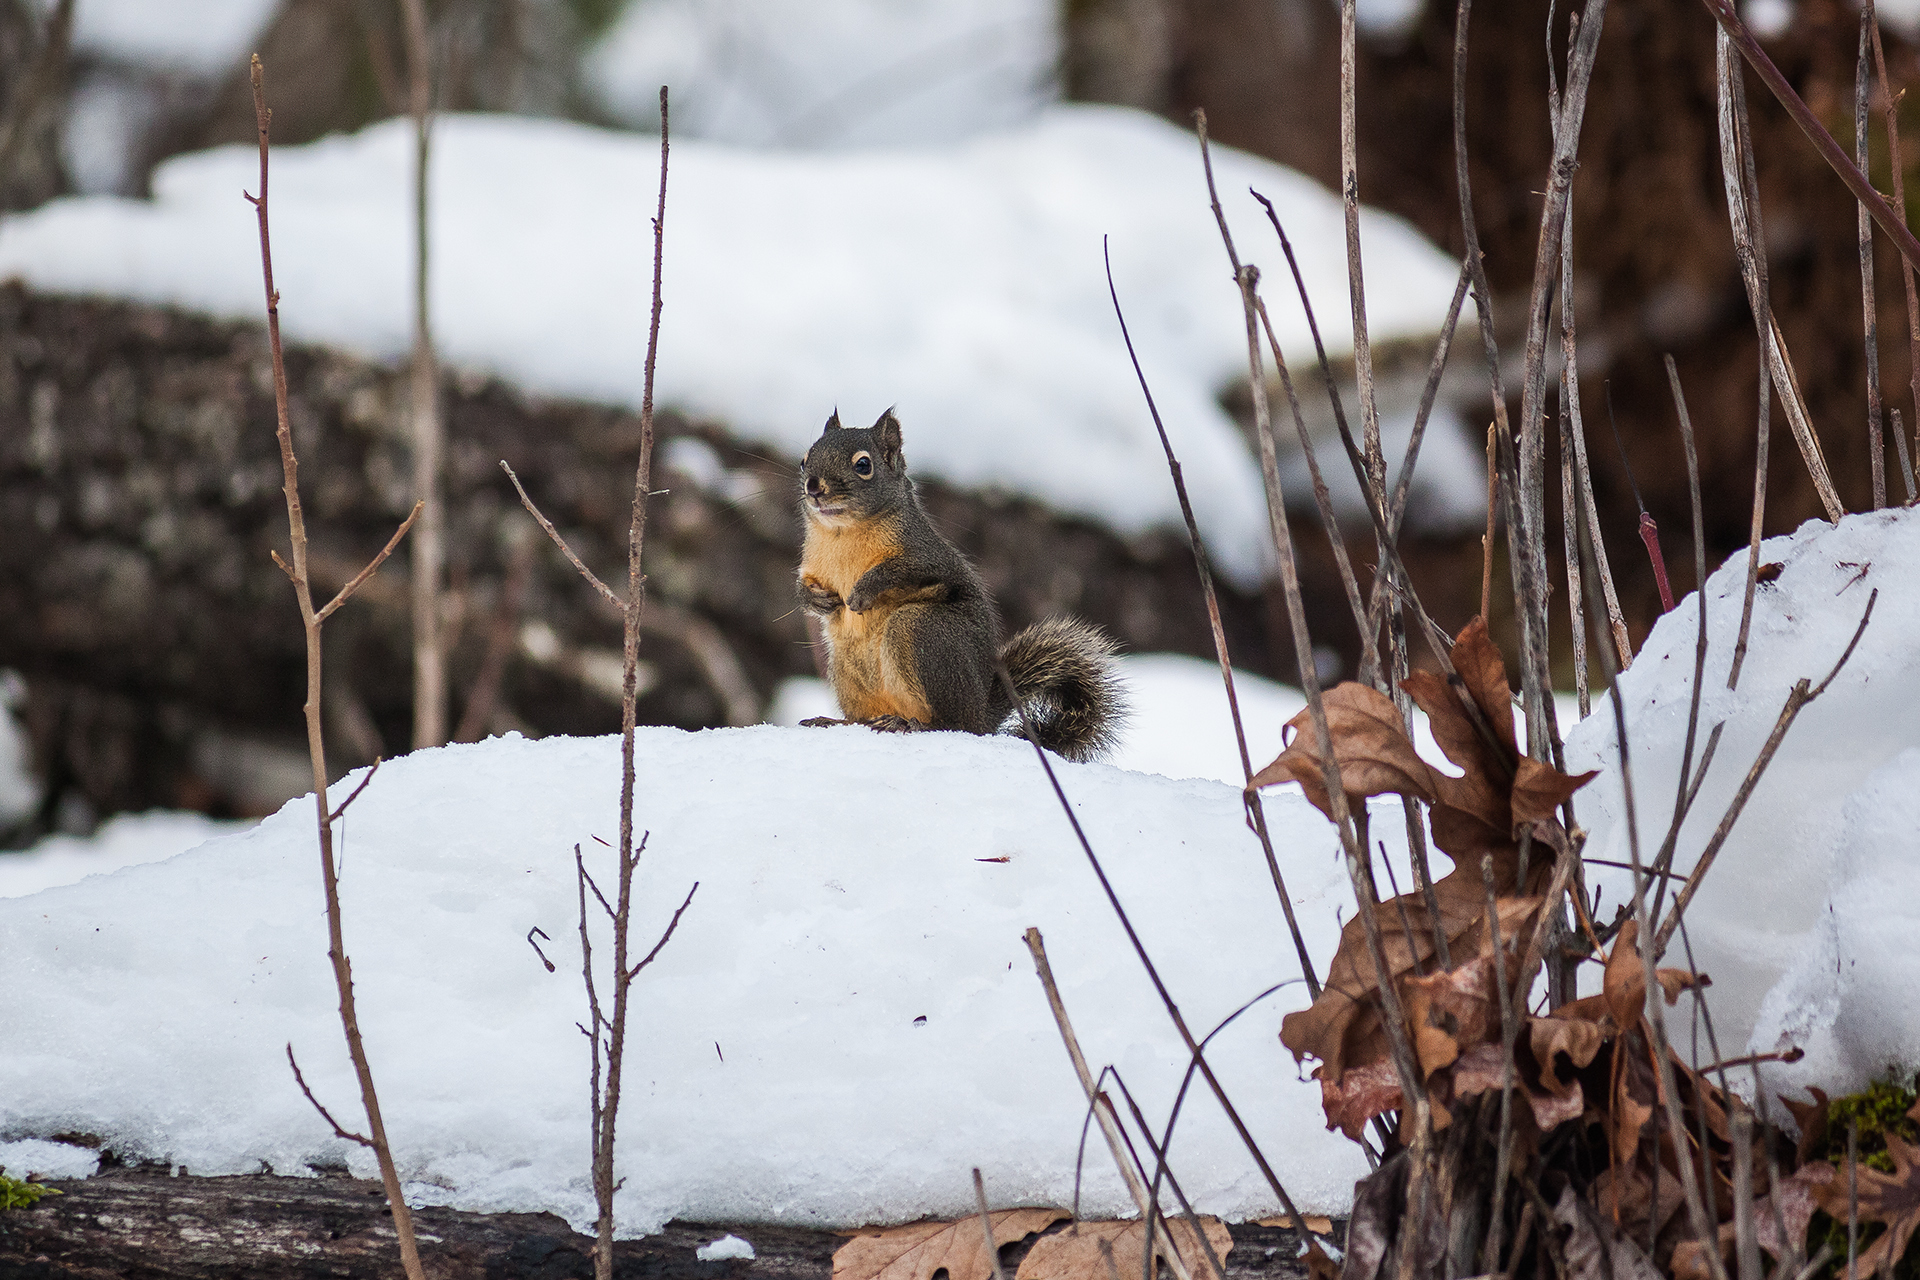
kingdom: Animalia
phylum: Chordata
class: Mammalia
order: Rodentia
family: Sciuridae
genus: Tamiasciurus
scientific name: Tamiasciurus douglasii
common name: Douglas's squirrel
